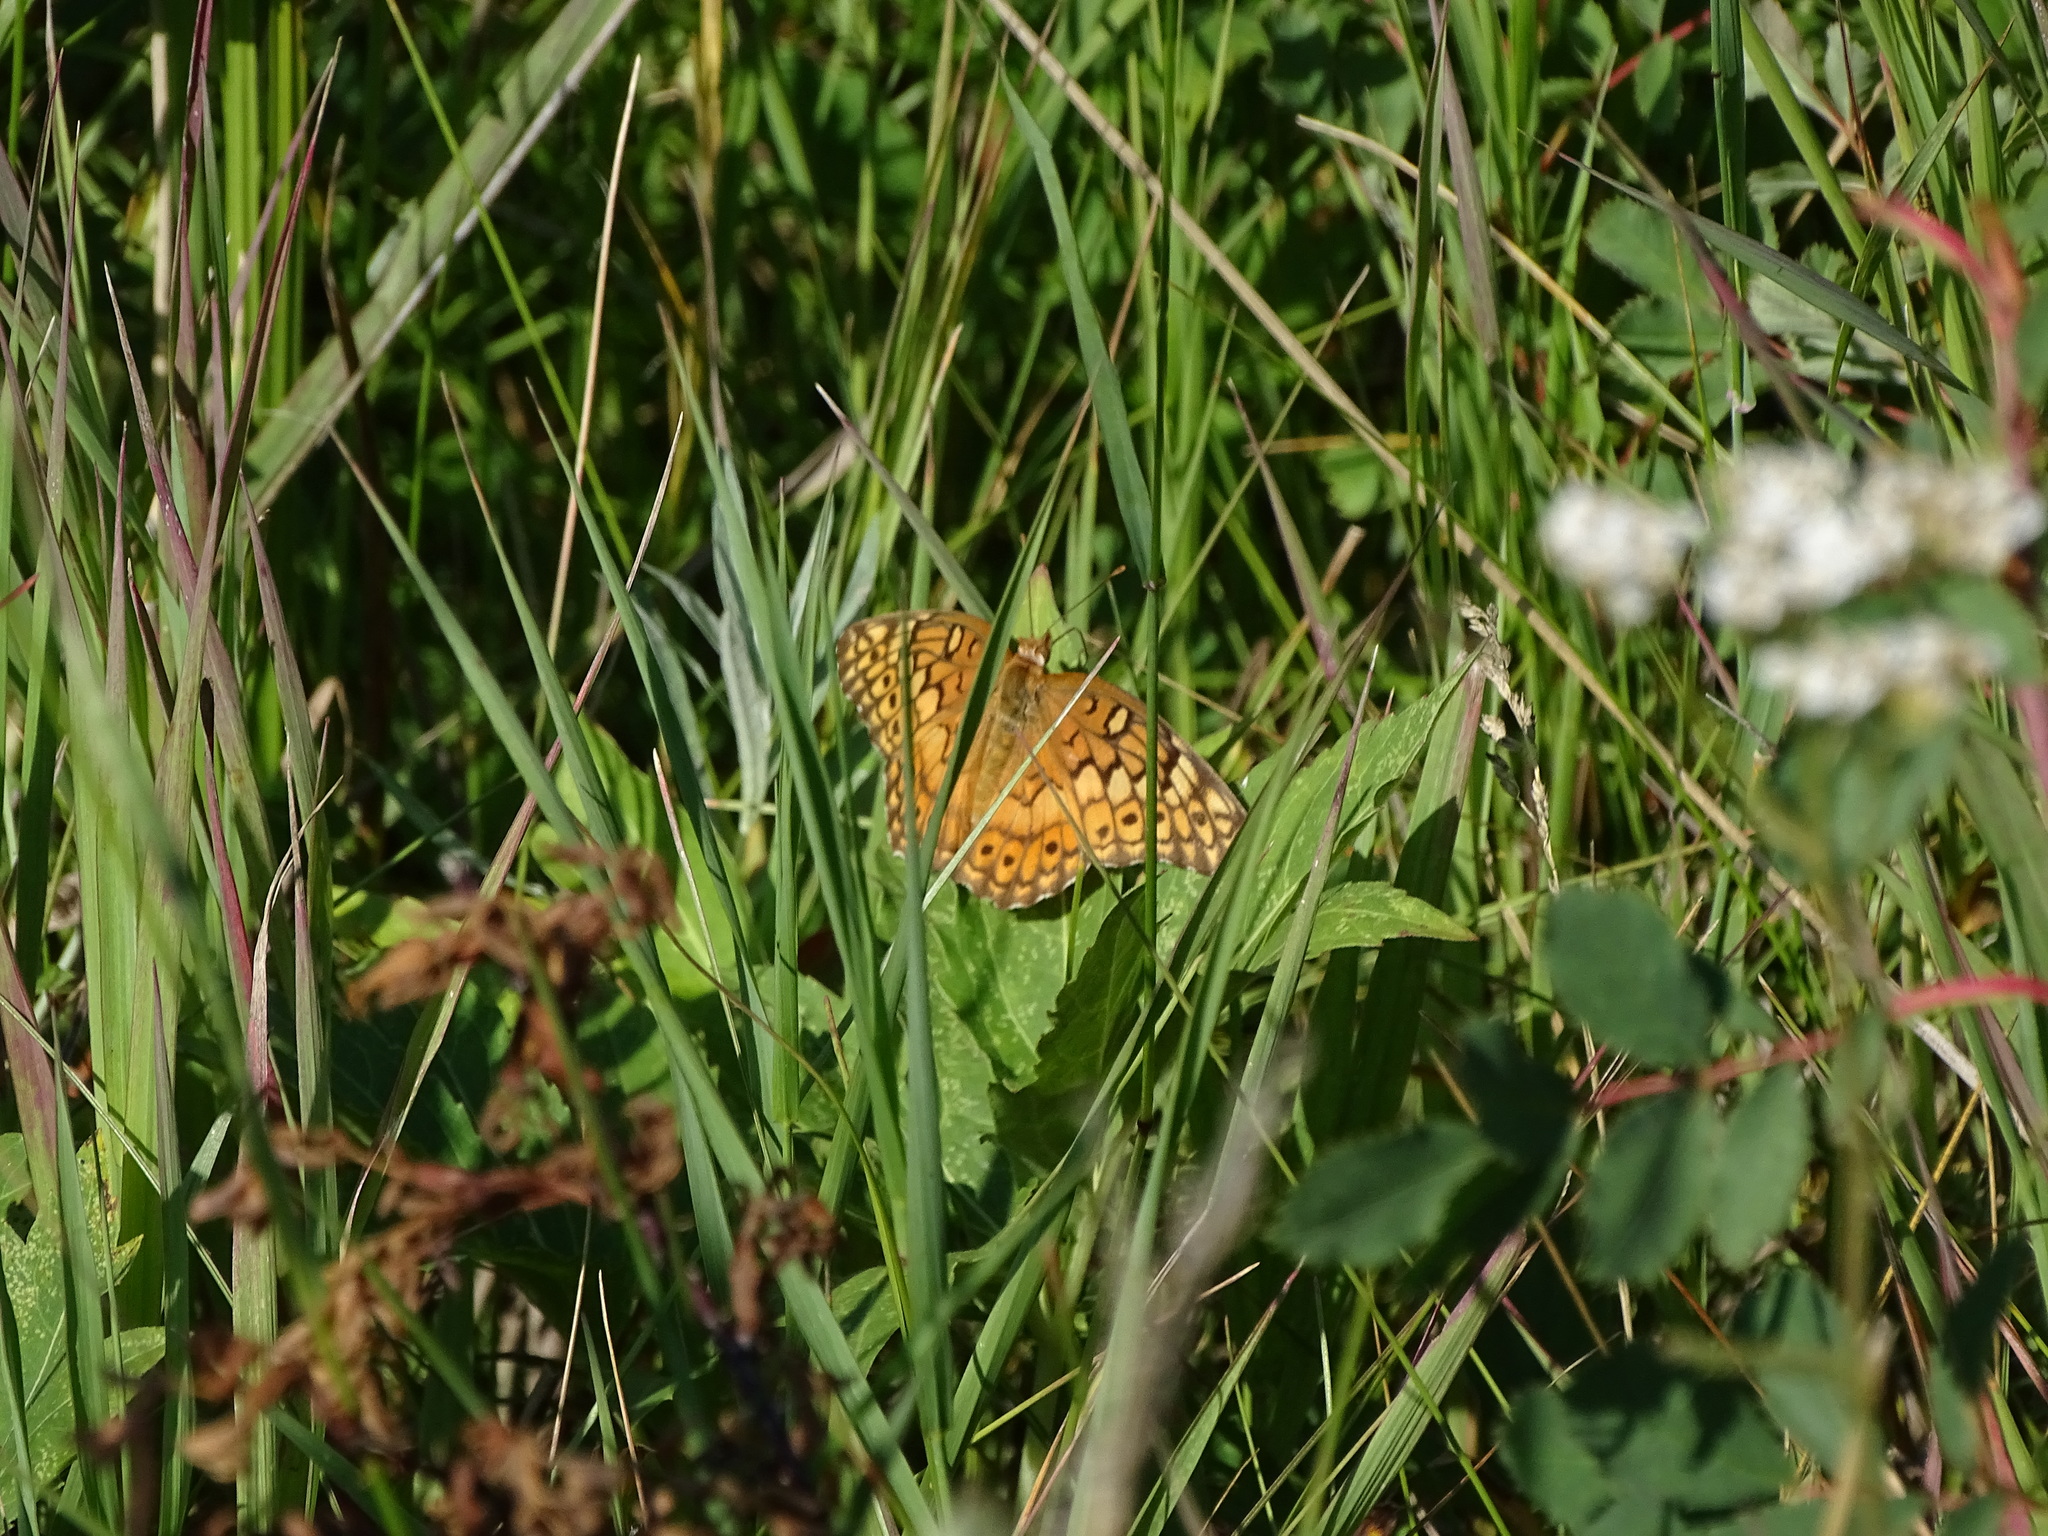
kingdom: Animalia
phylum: Arthropoda
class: Insecta
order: Lepidoptera
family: Nymphalidae
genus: Euptoieta
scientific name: Euptoieta claudia
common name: Variegated fritillary
